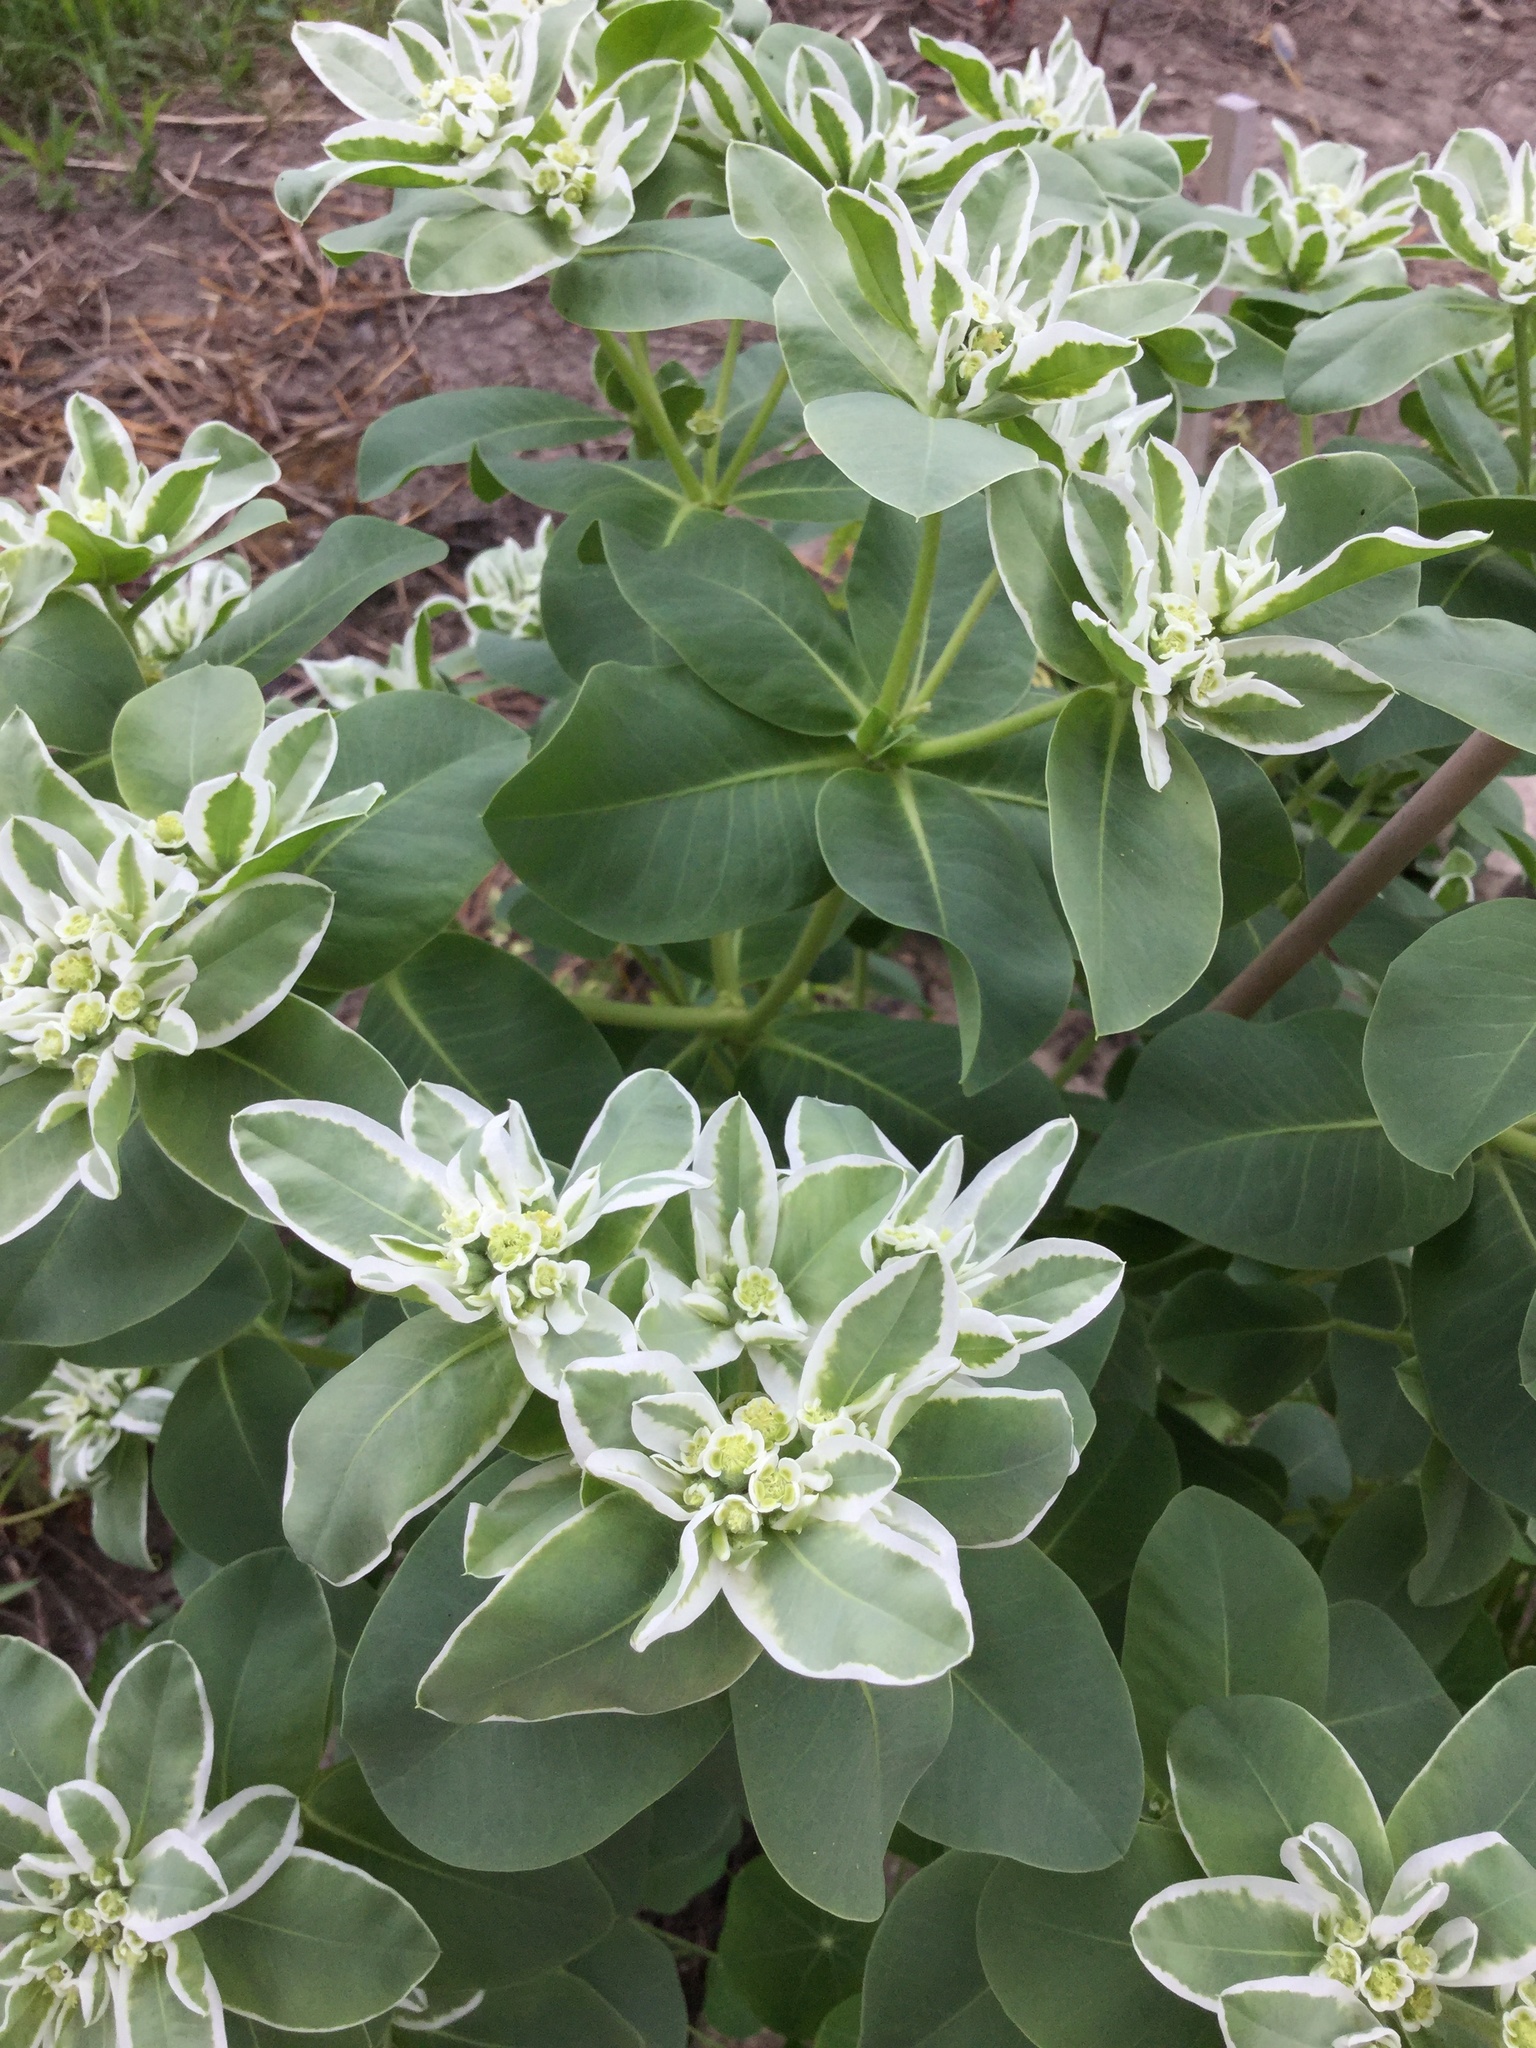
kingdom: Plantae
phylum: Tracheophyta
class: Magnoliopsida
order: Malpighiales
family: Euphorbiaceae
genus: Euphorbia
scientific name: Euphorbia marginata
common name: Ghostweed
